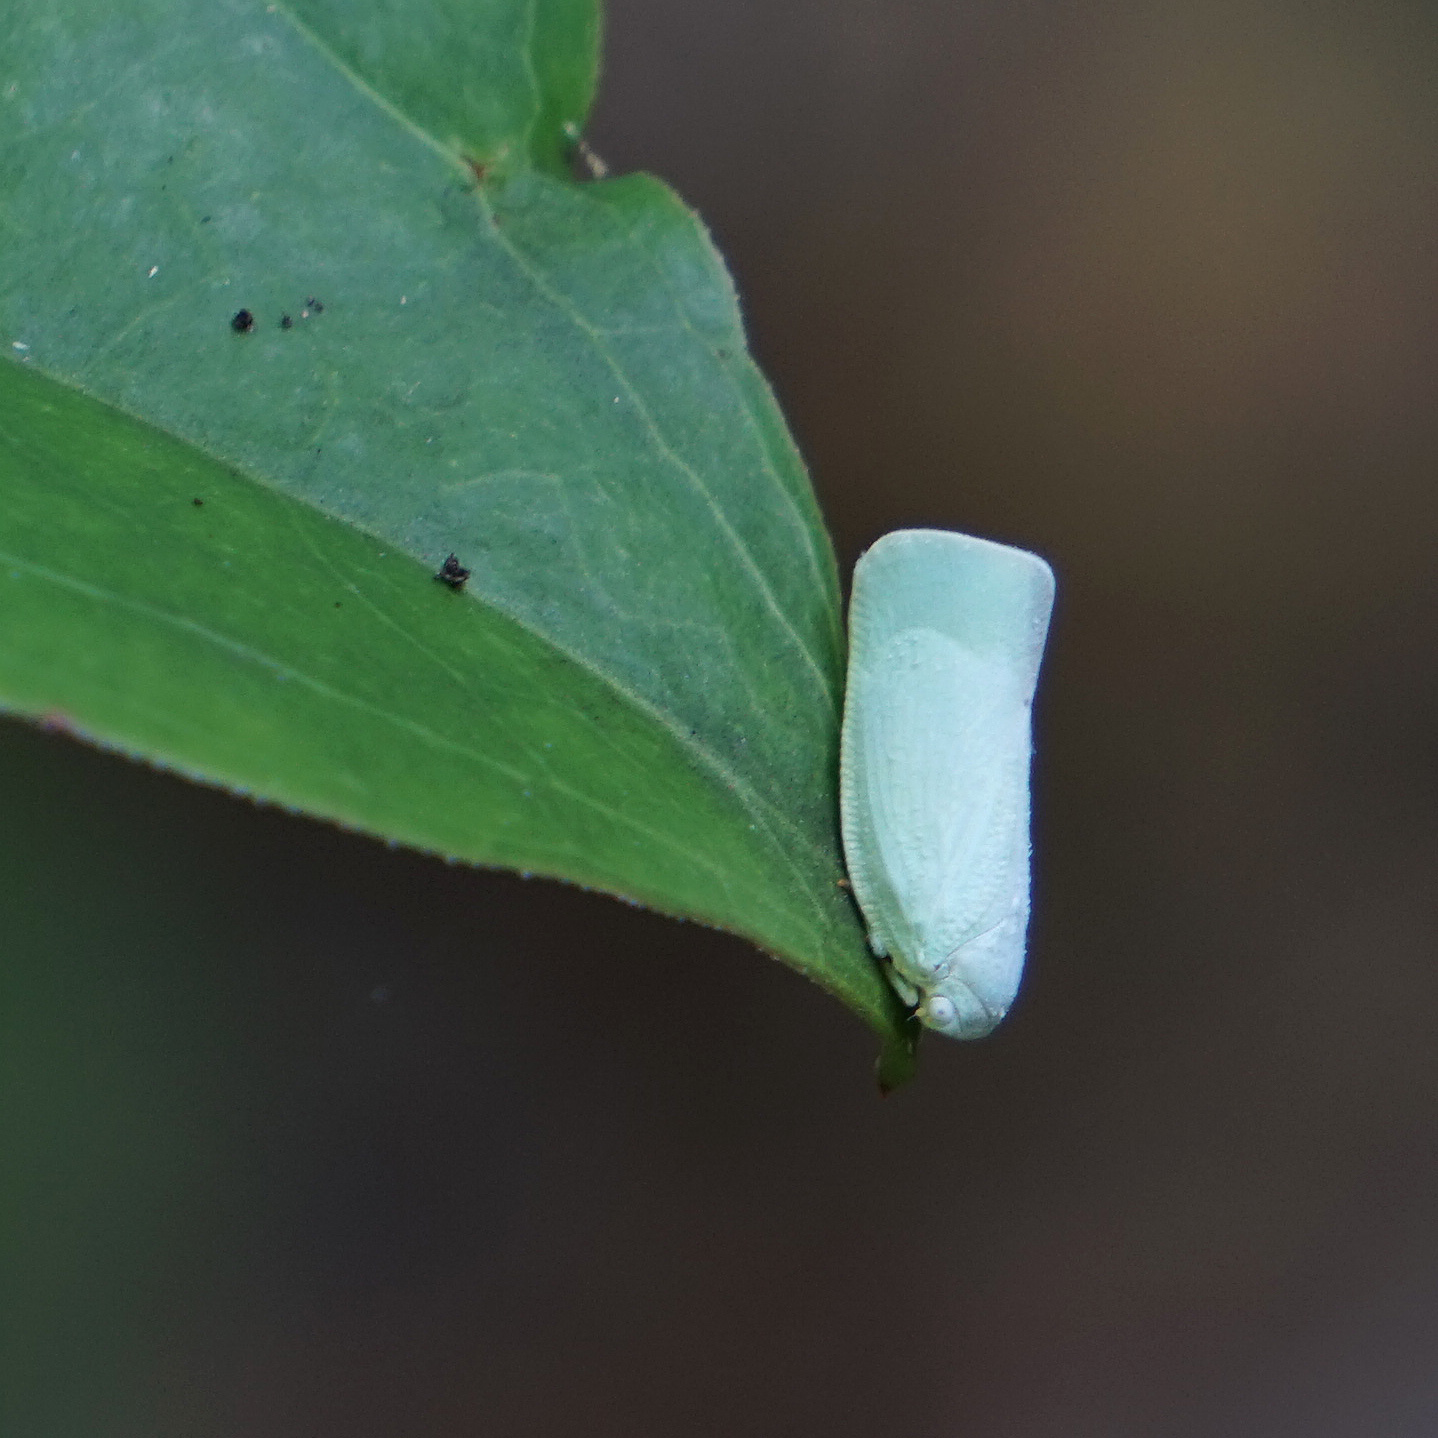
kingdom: Animalia
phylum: Arthropoda
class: Insecta
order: Hemiptera
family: Flatidae
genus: Flatormenis
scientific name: Flatormenis proxima
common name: Northern flatid planthopper
